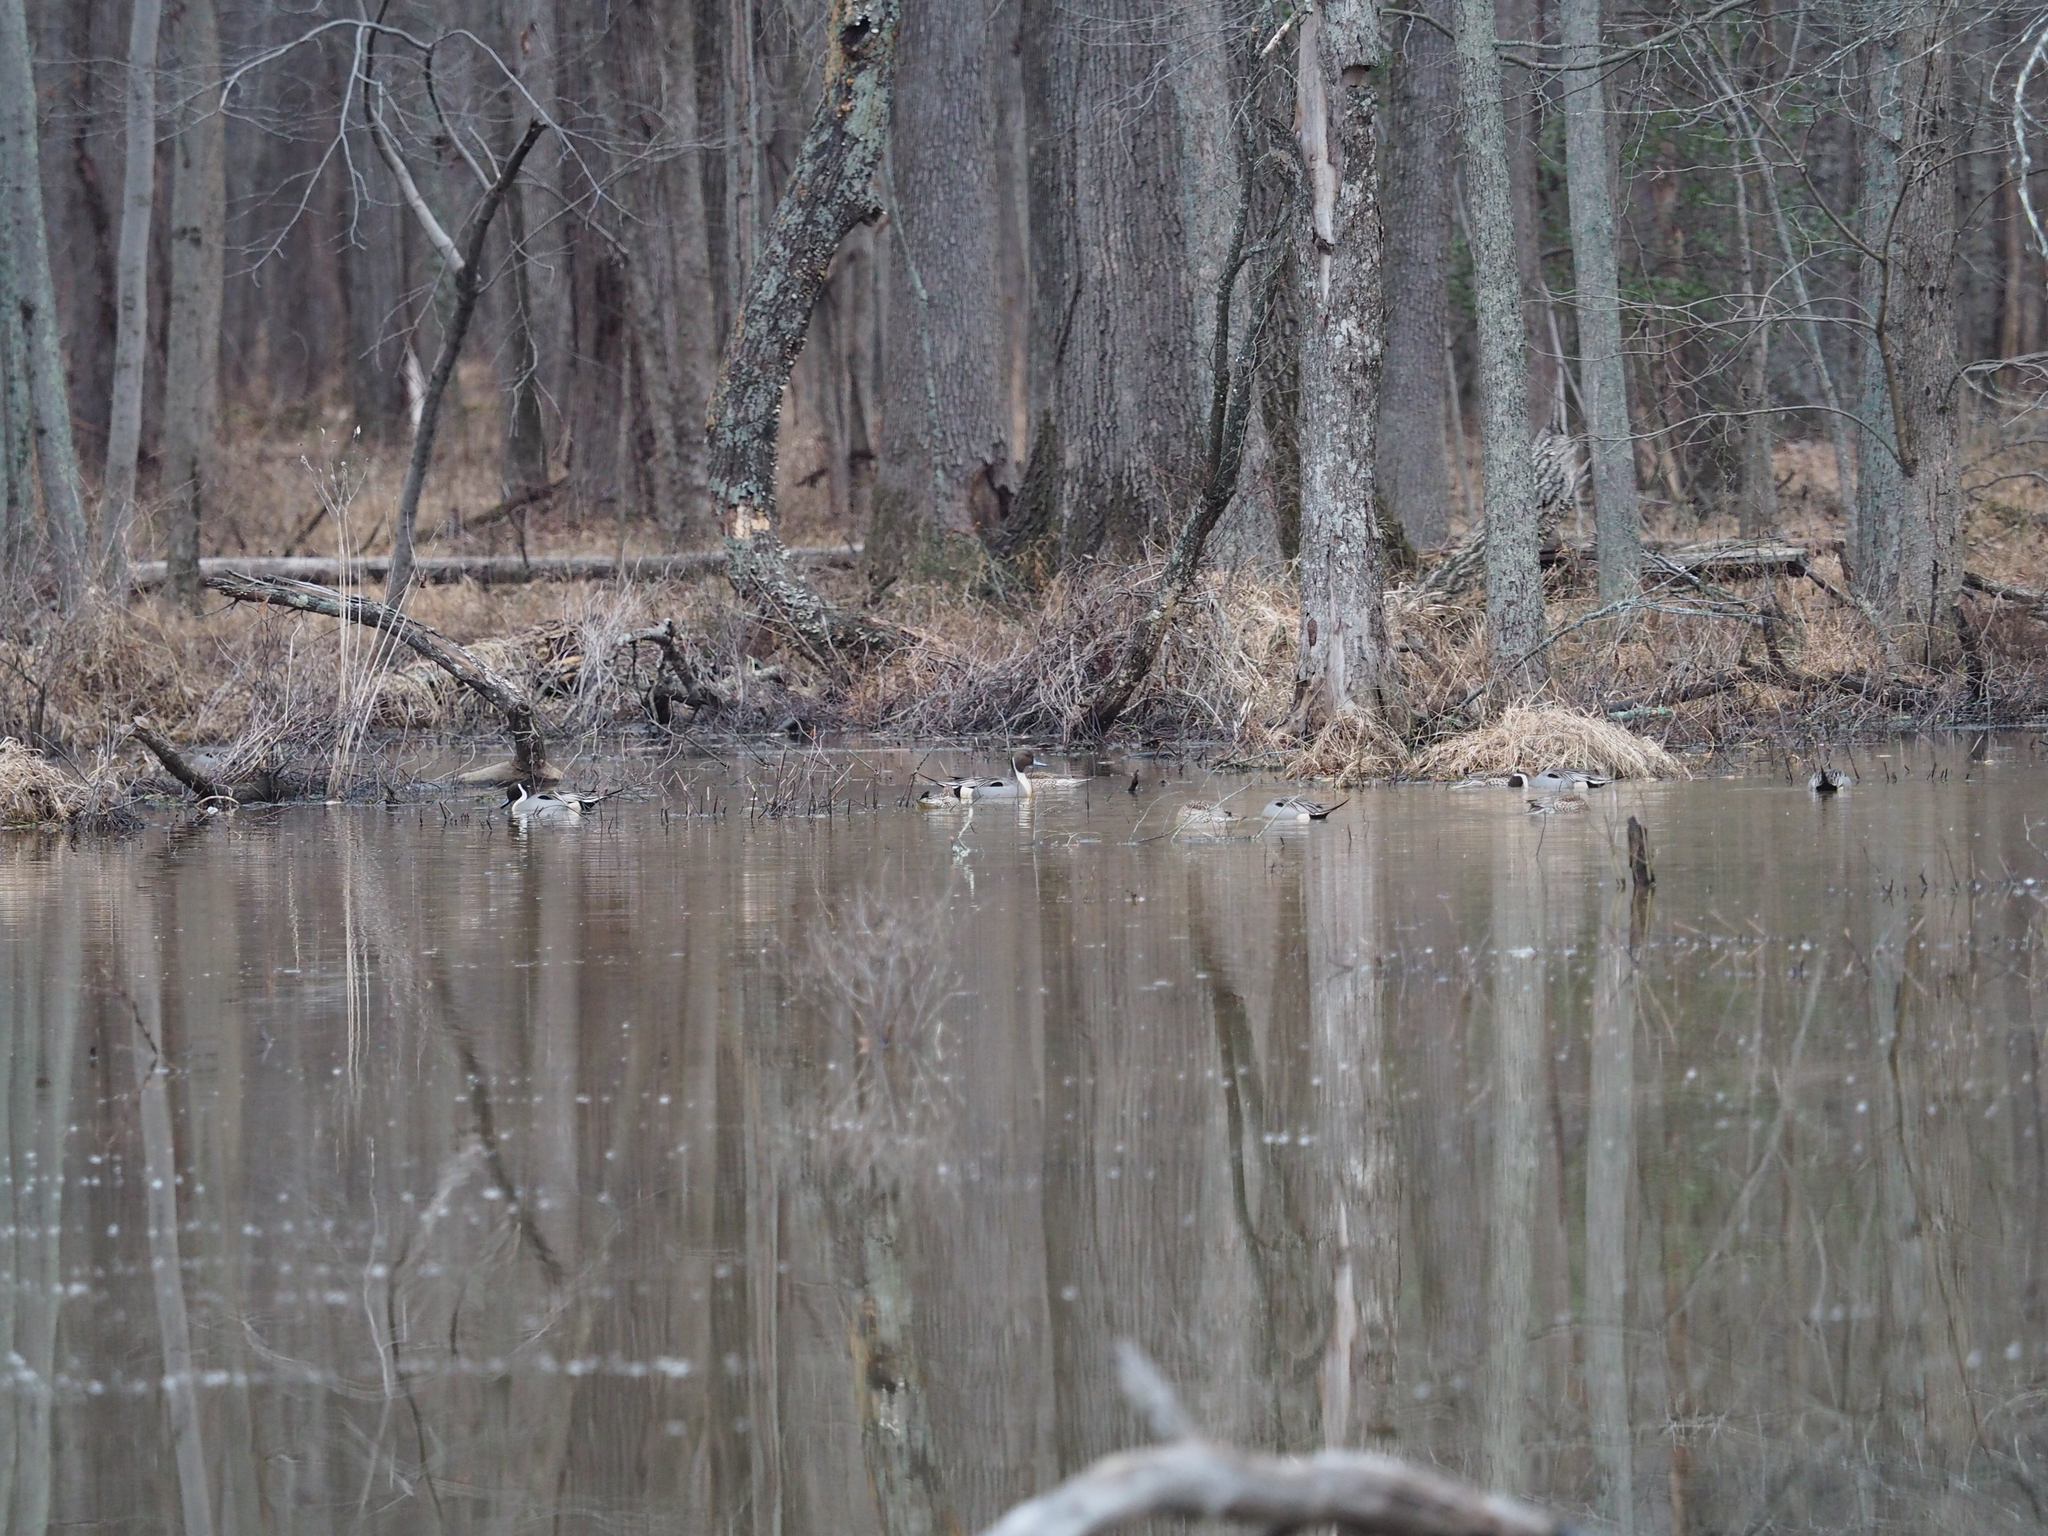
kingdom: Animalia
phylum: Chordata
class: Aves
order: Anseriformes
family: Anatidae
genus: Anas
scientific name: Anas acuta
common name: Northern pintail
